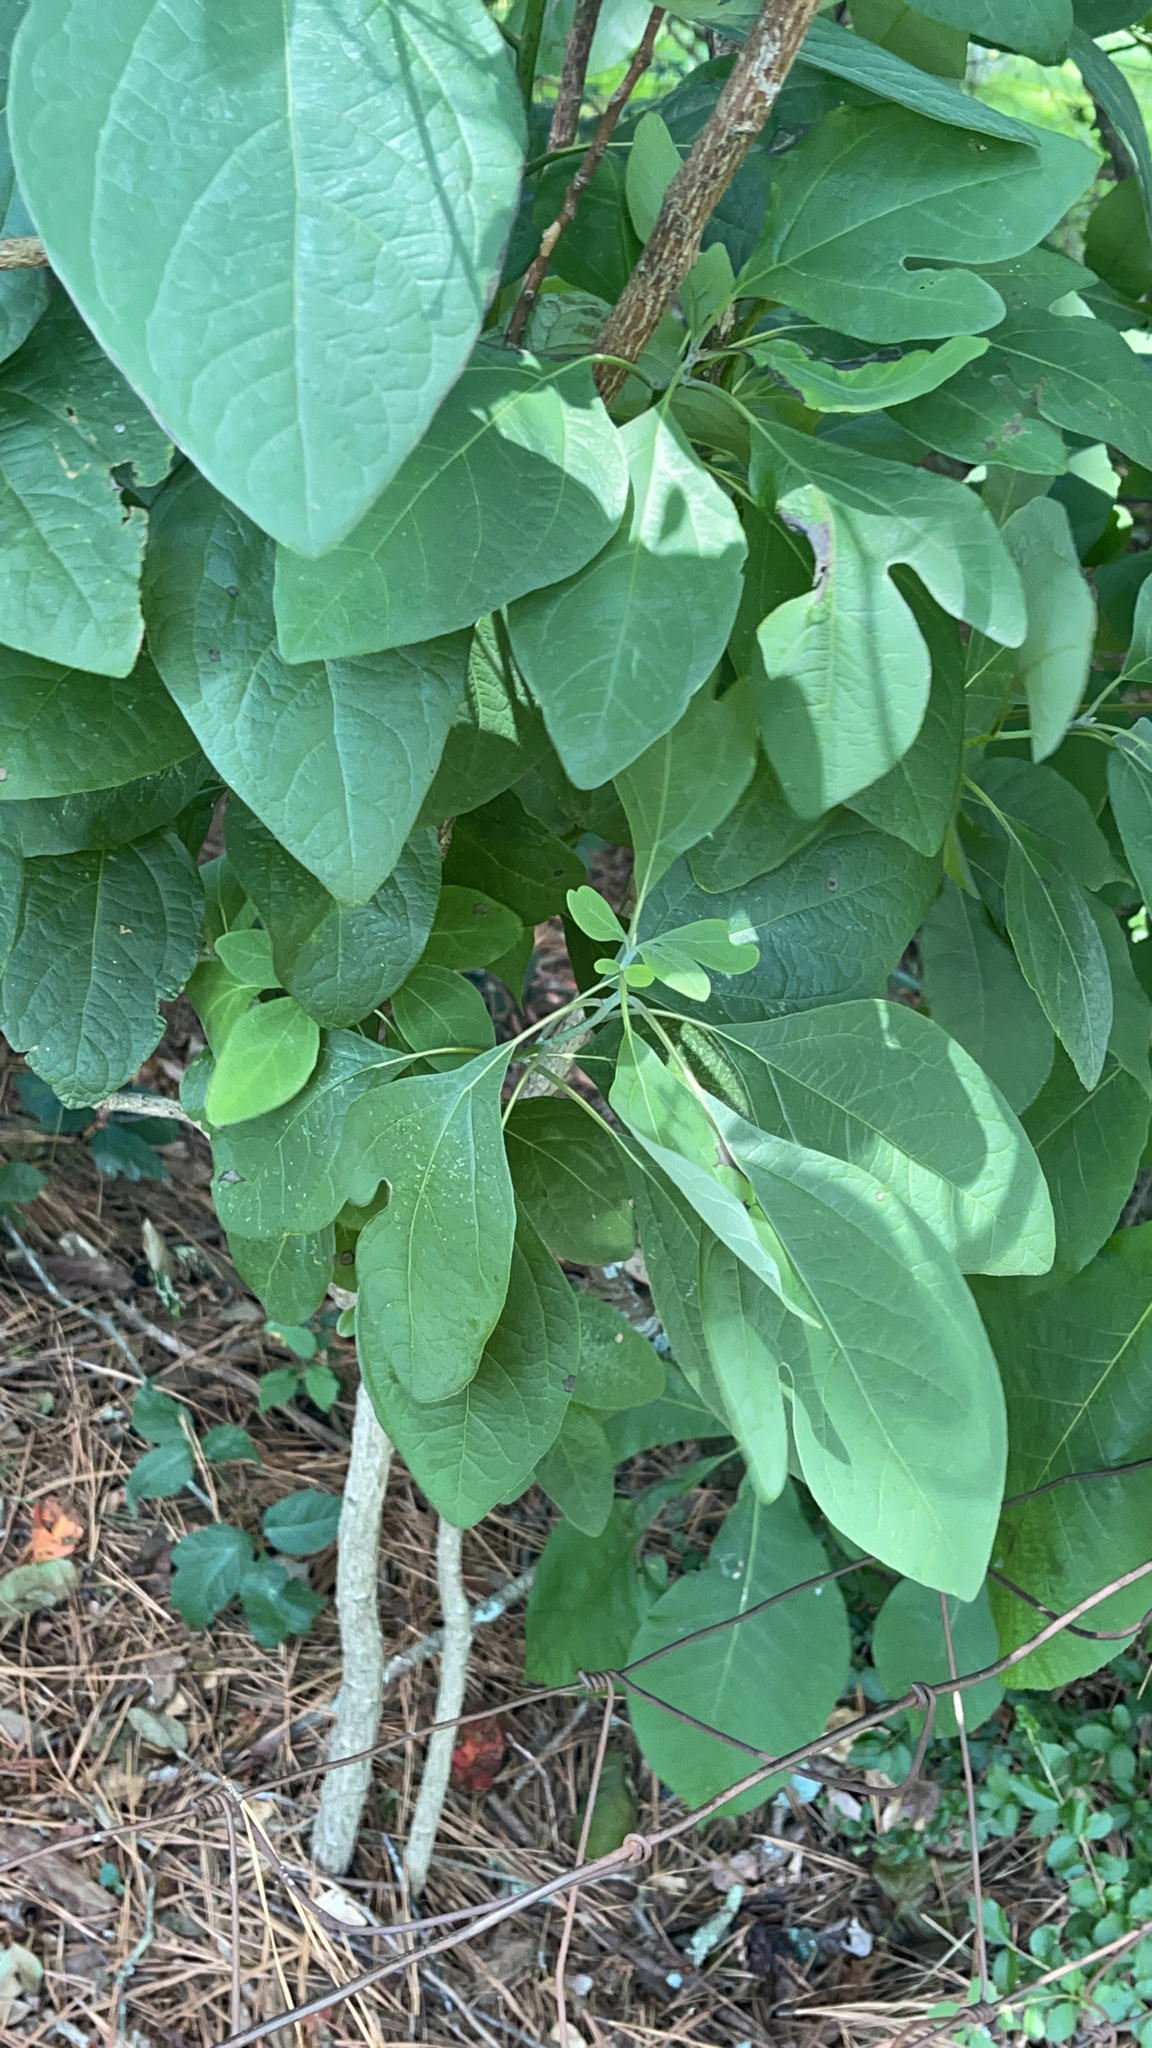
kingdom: Plantae
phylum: Tracheophyta
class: Magnoliopsida
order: Laurales
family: Lauraceae
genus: Sassafras
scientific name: Sassafras albidum
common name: Sassafras
